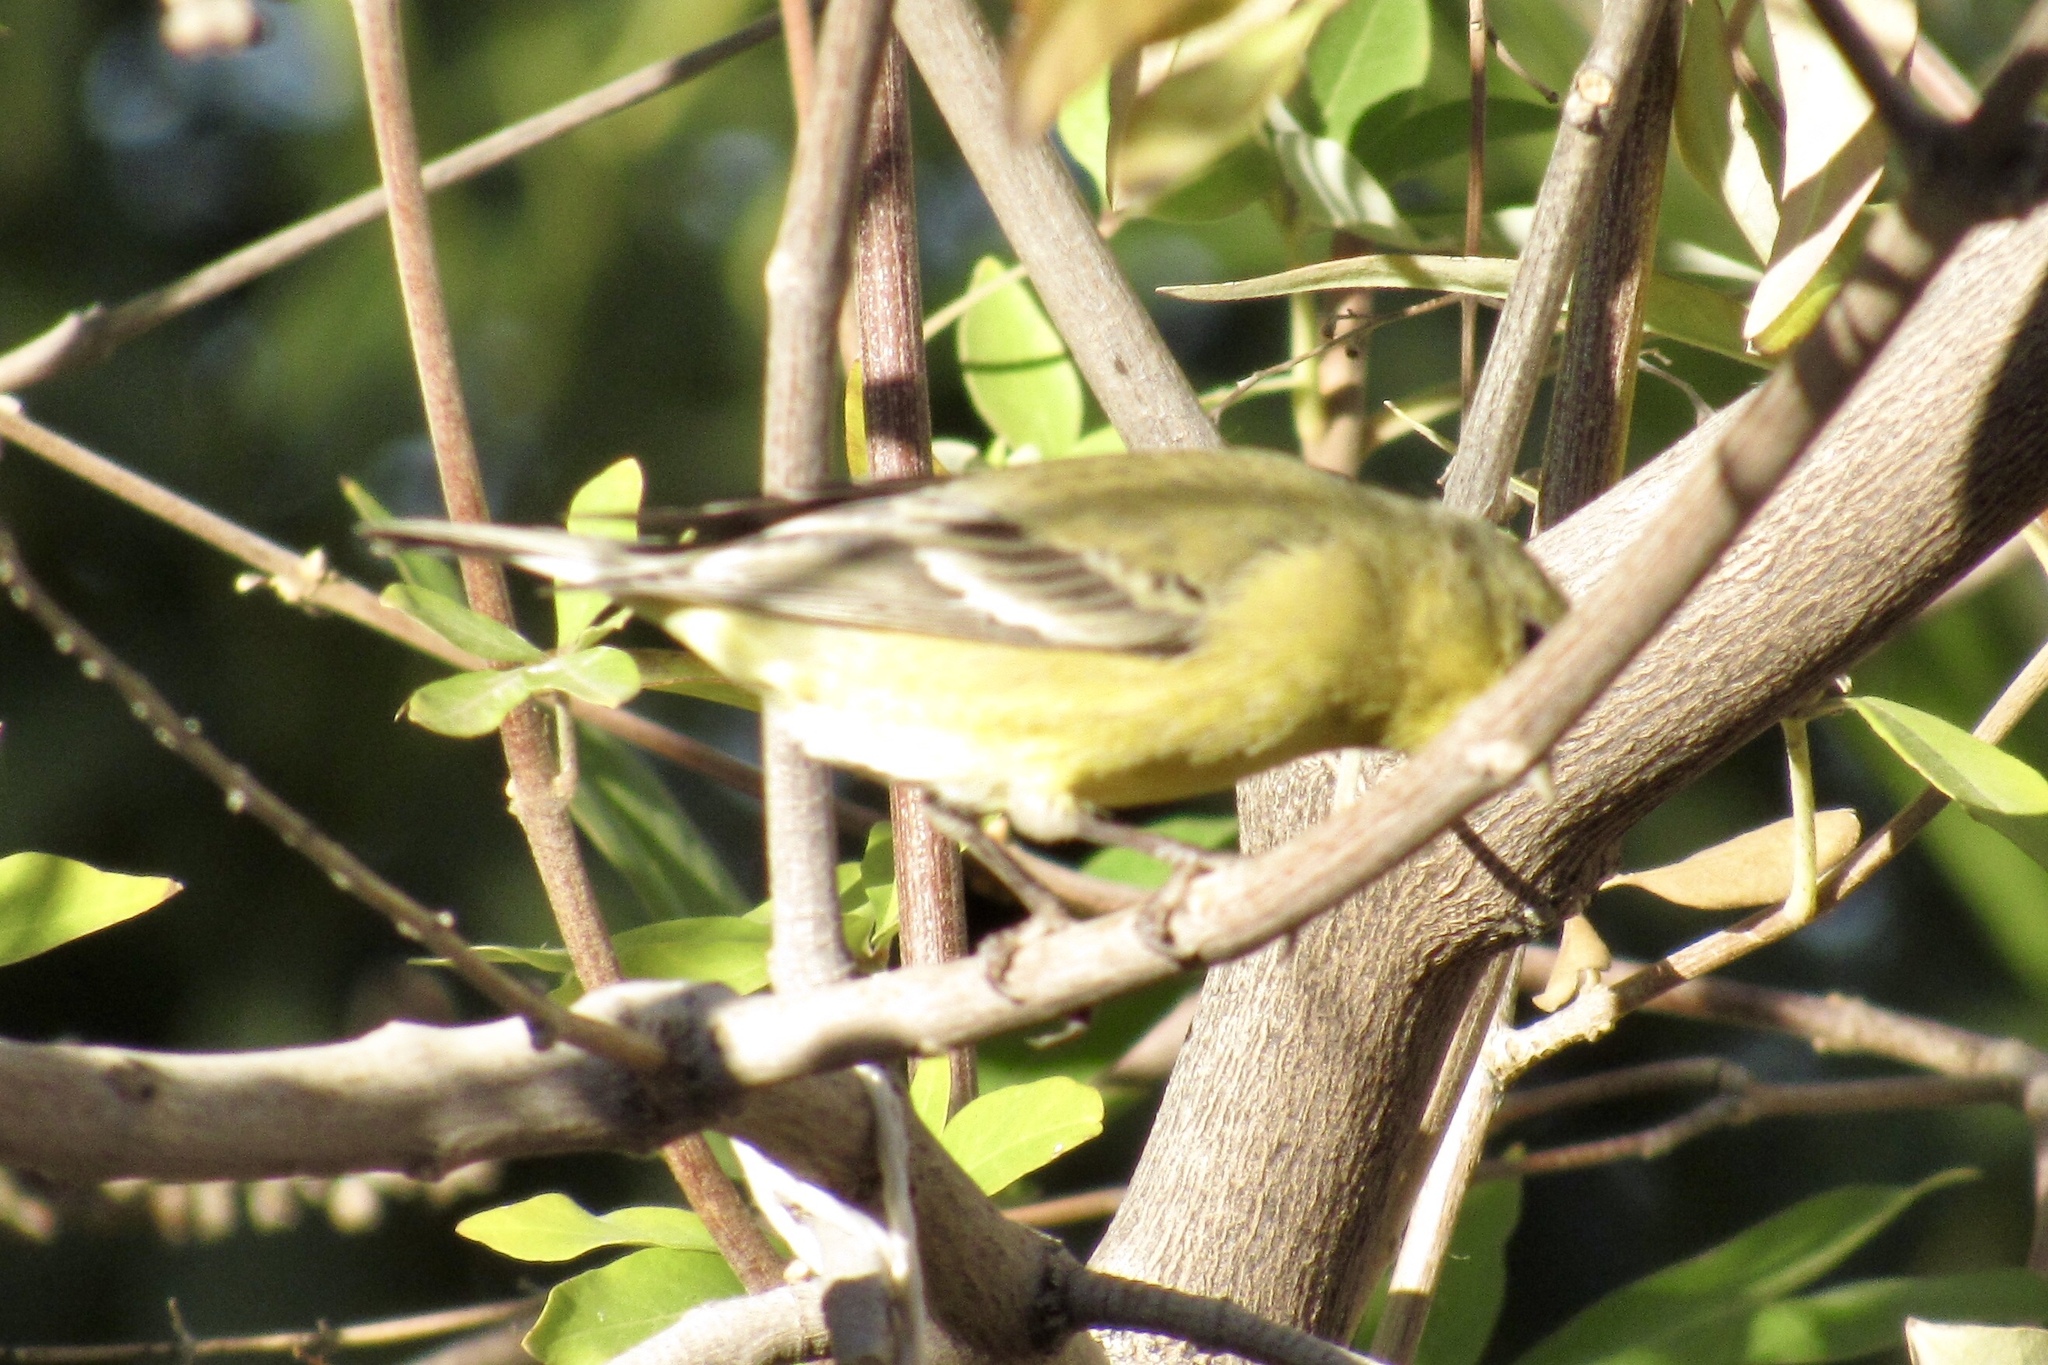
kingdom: Animalia
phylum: Chordata
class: Aves
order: Passeriformes
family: Fringillidae
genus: Spinus
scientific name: Spinus psaltria
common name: Lesser goldfinch
